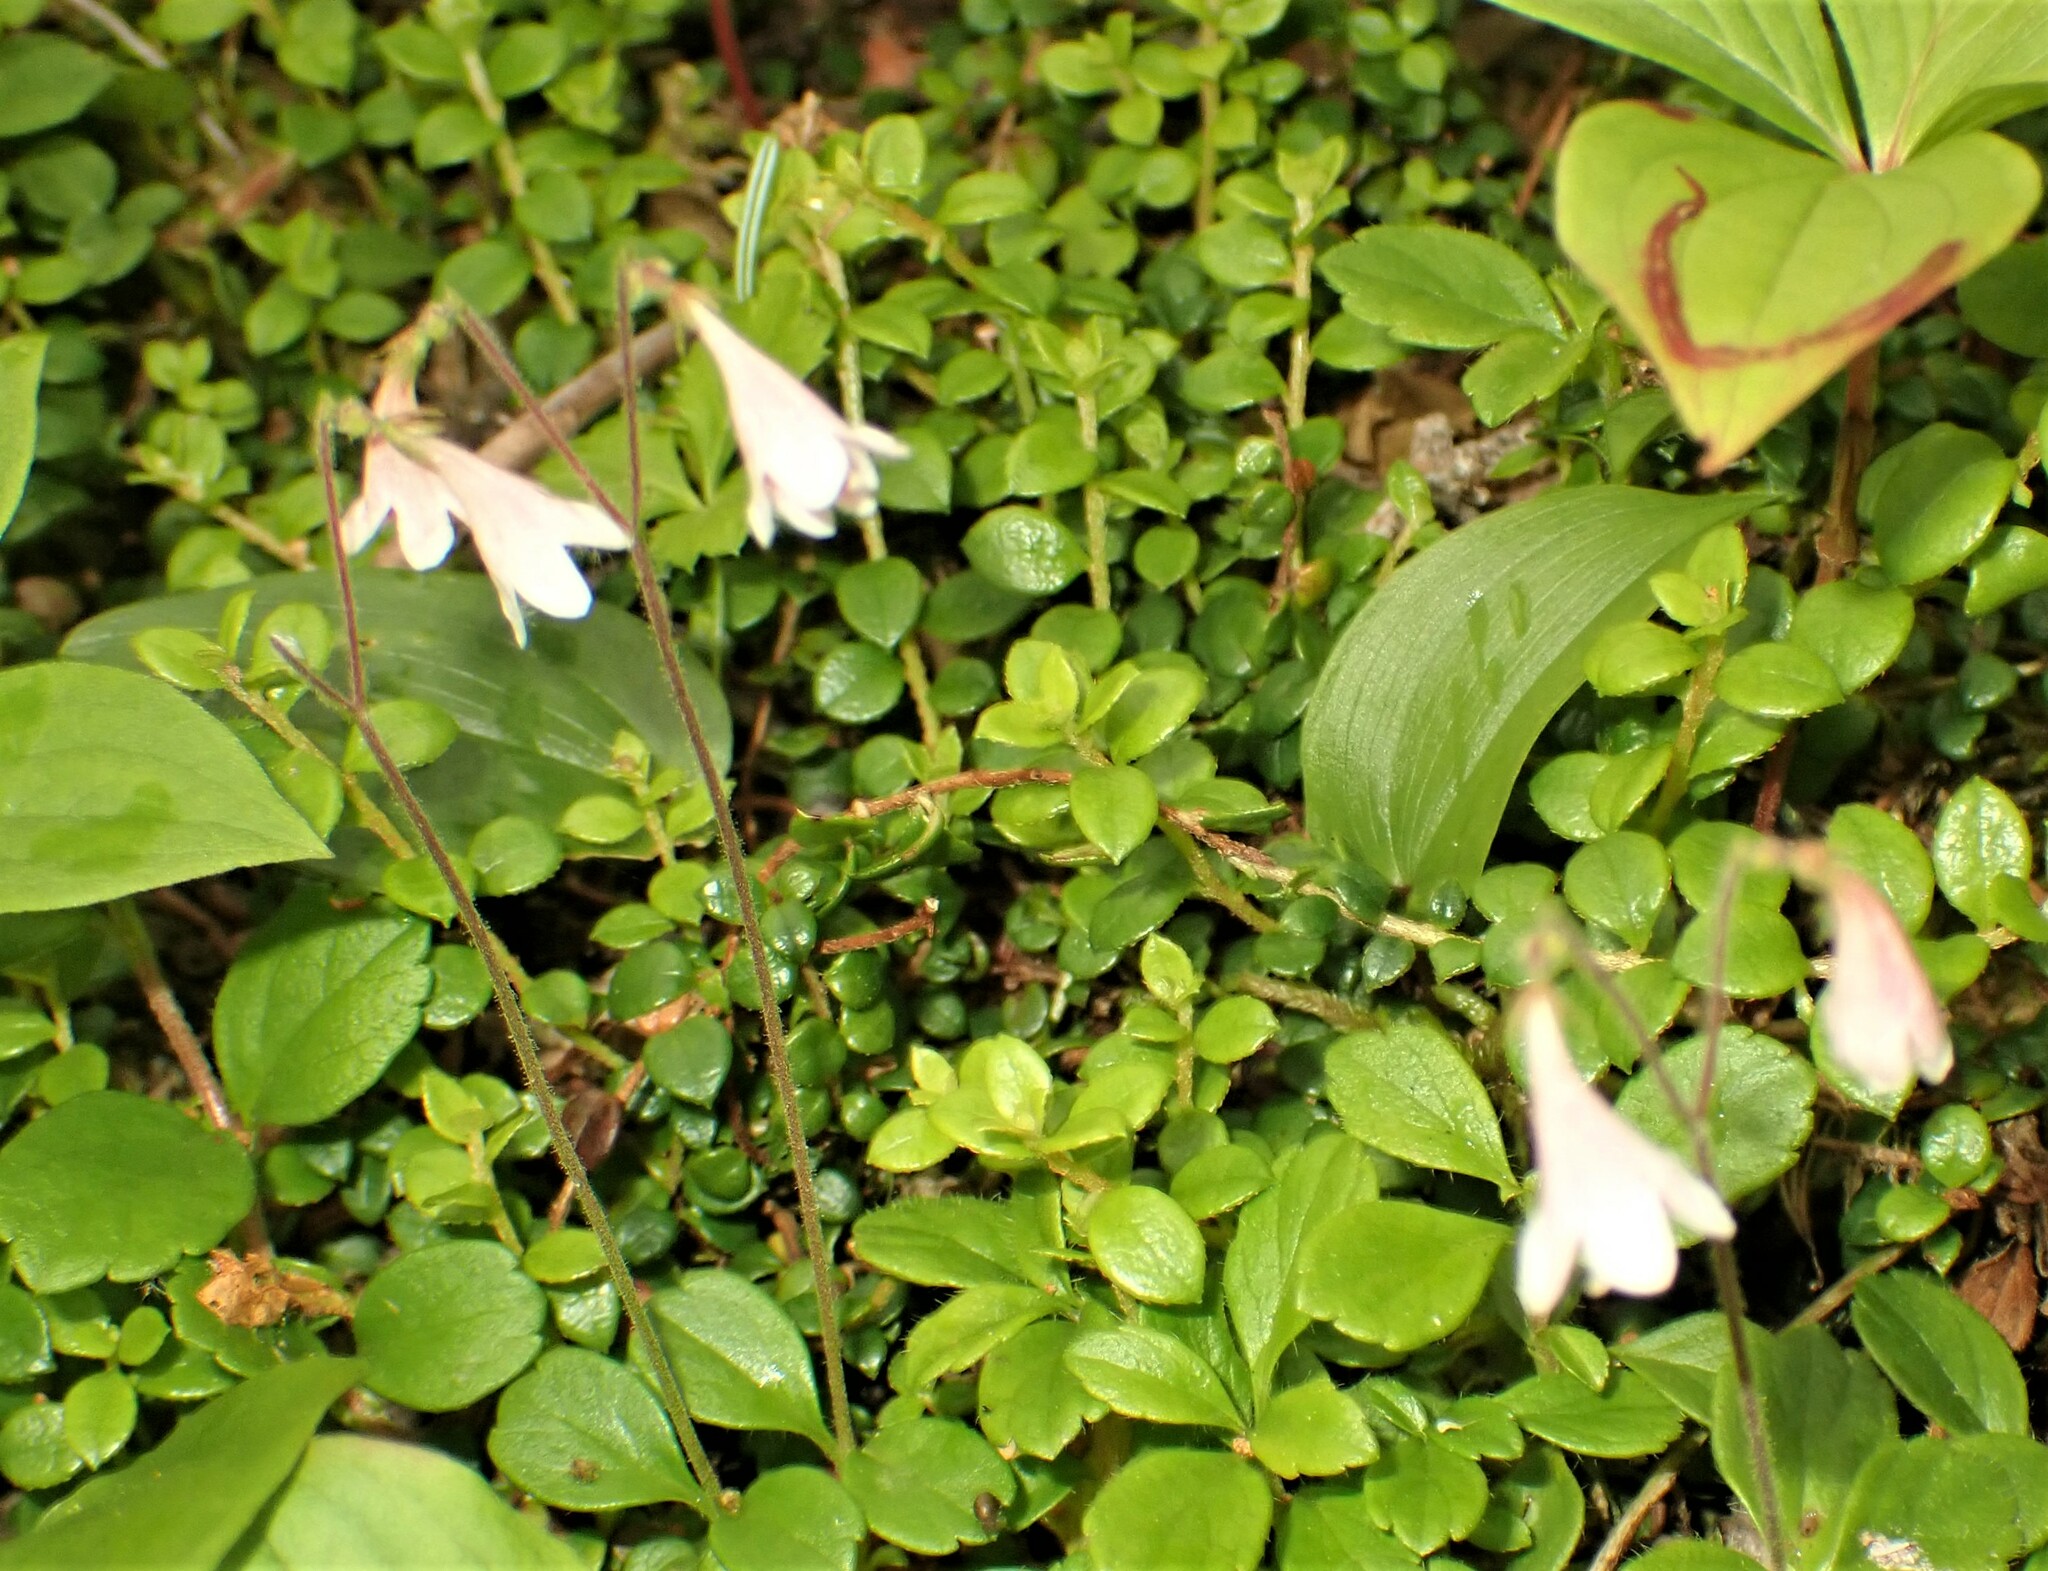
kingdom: Plantae
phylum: Tracheophyta
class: Magnoliopsida
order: Dipsacales
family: Caprifoliaceae
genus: Linnaea
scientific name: Linnaea borealis
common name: Twinflower
